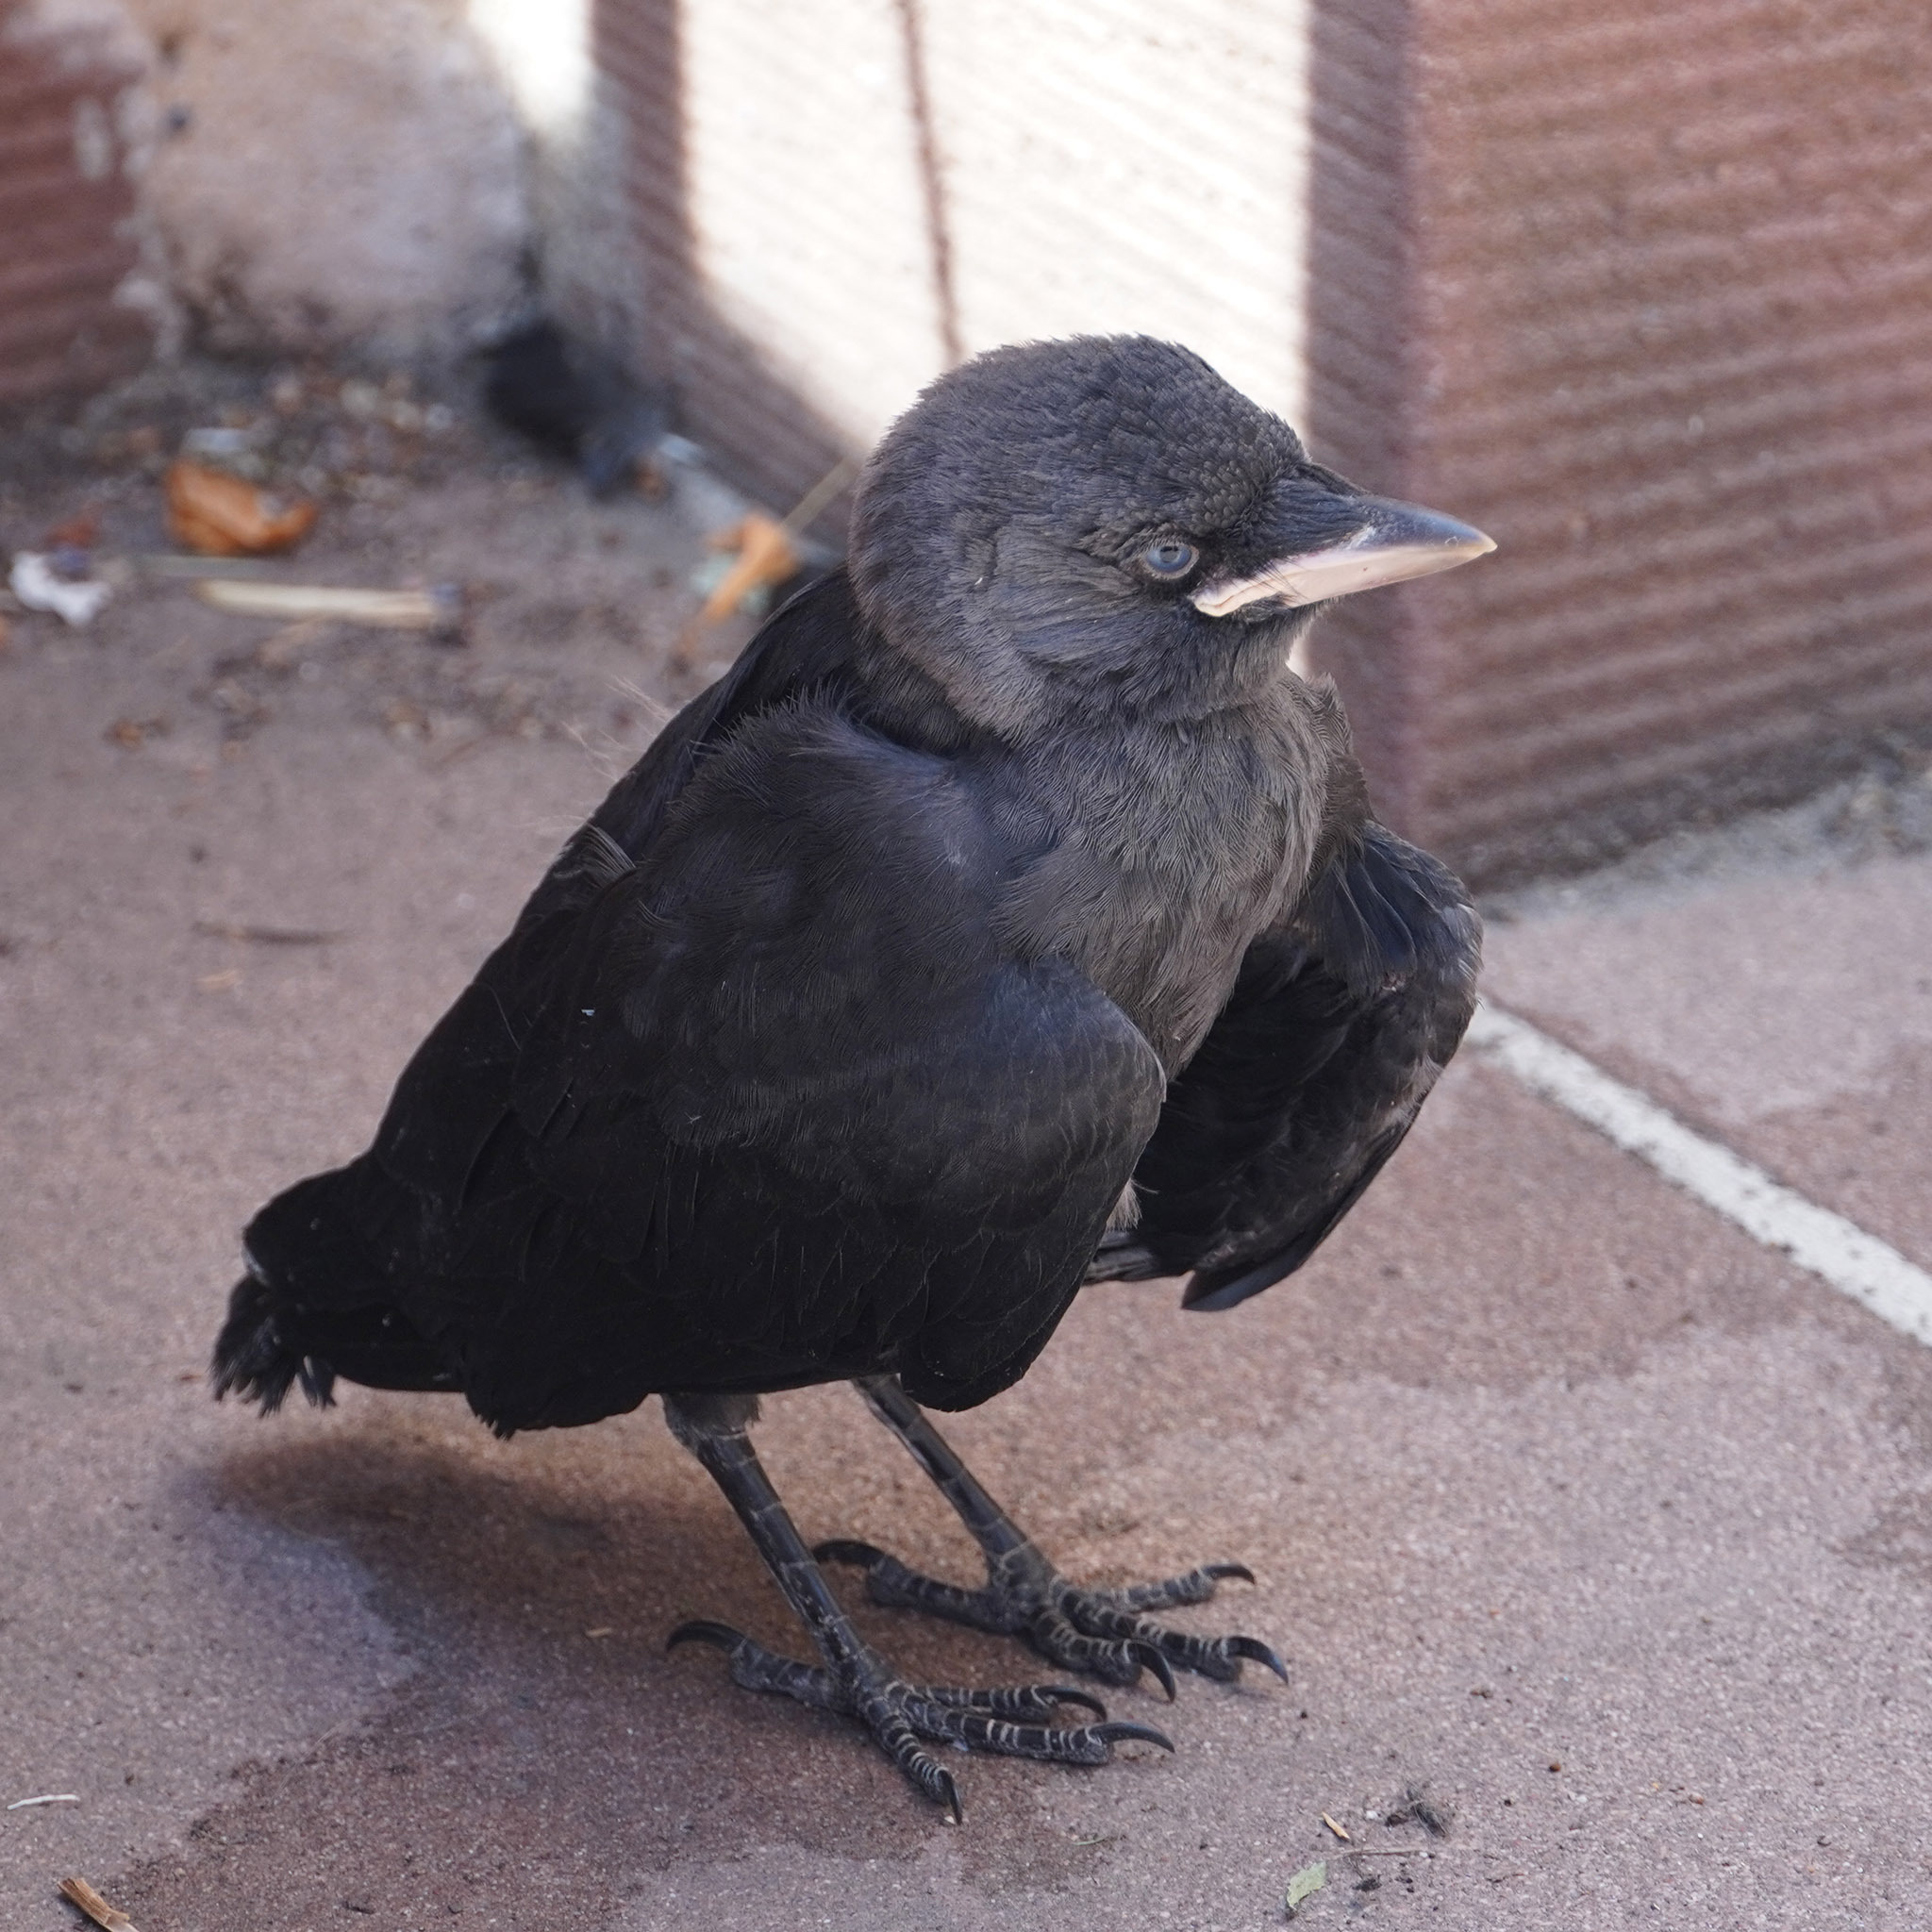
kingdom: Animalia
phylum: Chordata
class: Aves
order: Passeriformes
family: Corvidae
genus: Coloeus
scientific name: Coloeus monedula
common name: Western jackdaw
